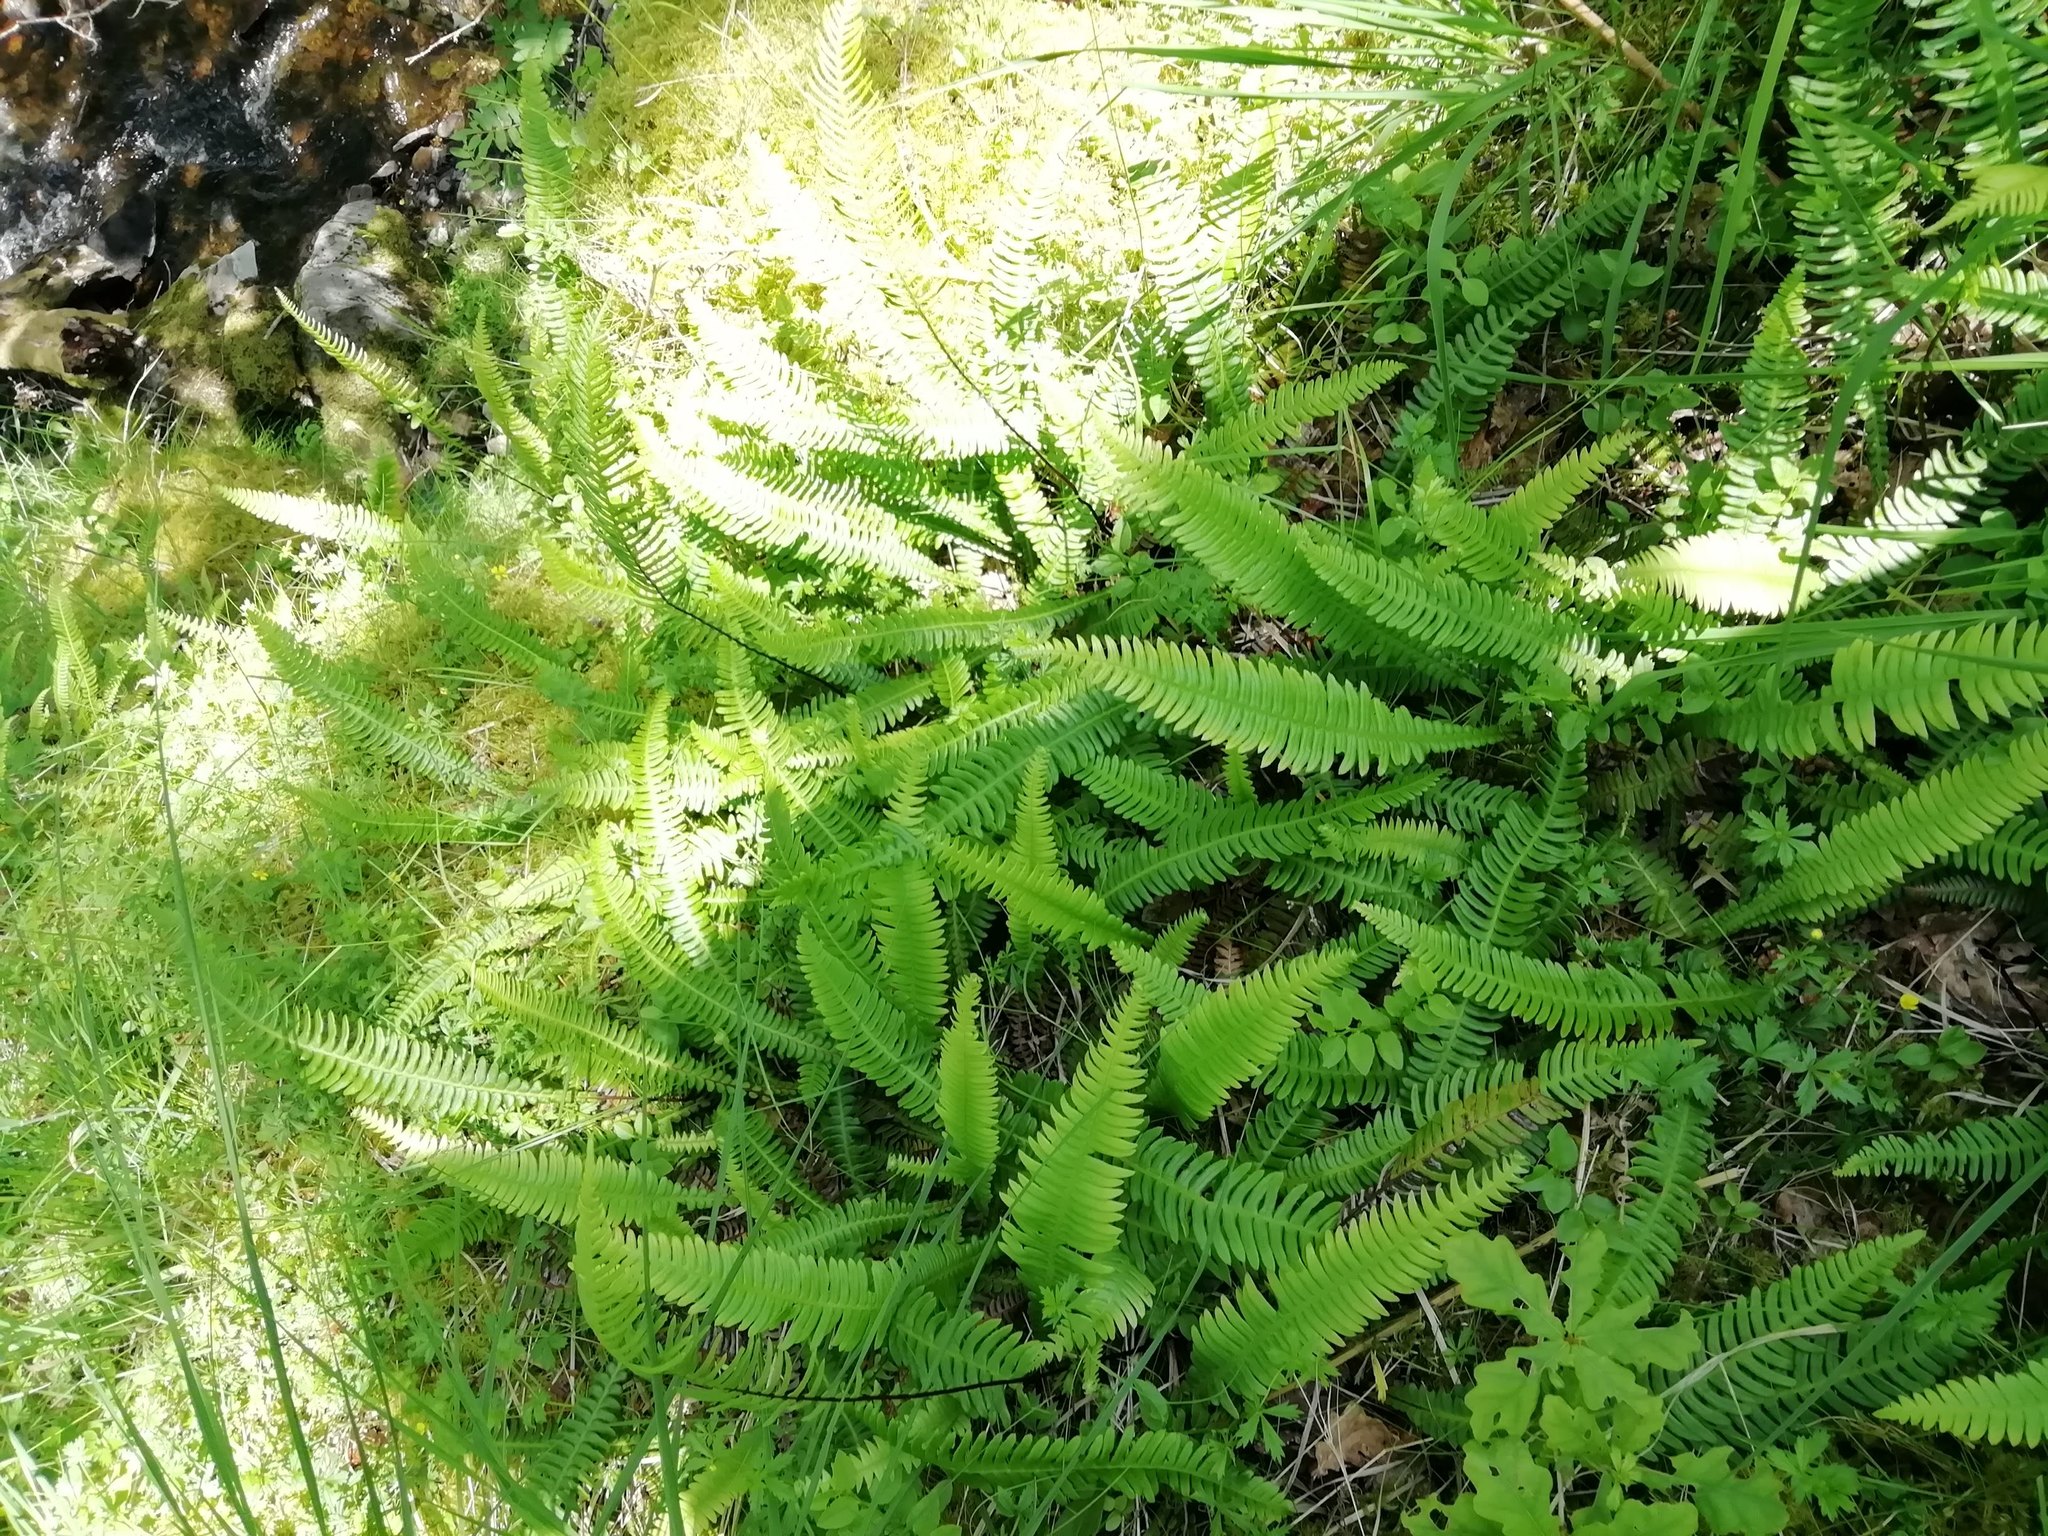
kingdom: Plantae
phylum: Tracheophyta
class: Polypodiopsida
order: Polypodiales
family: Blechnaceae
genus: Struthiopteris
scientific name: Struthiopteris spicant
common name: Deer fern
